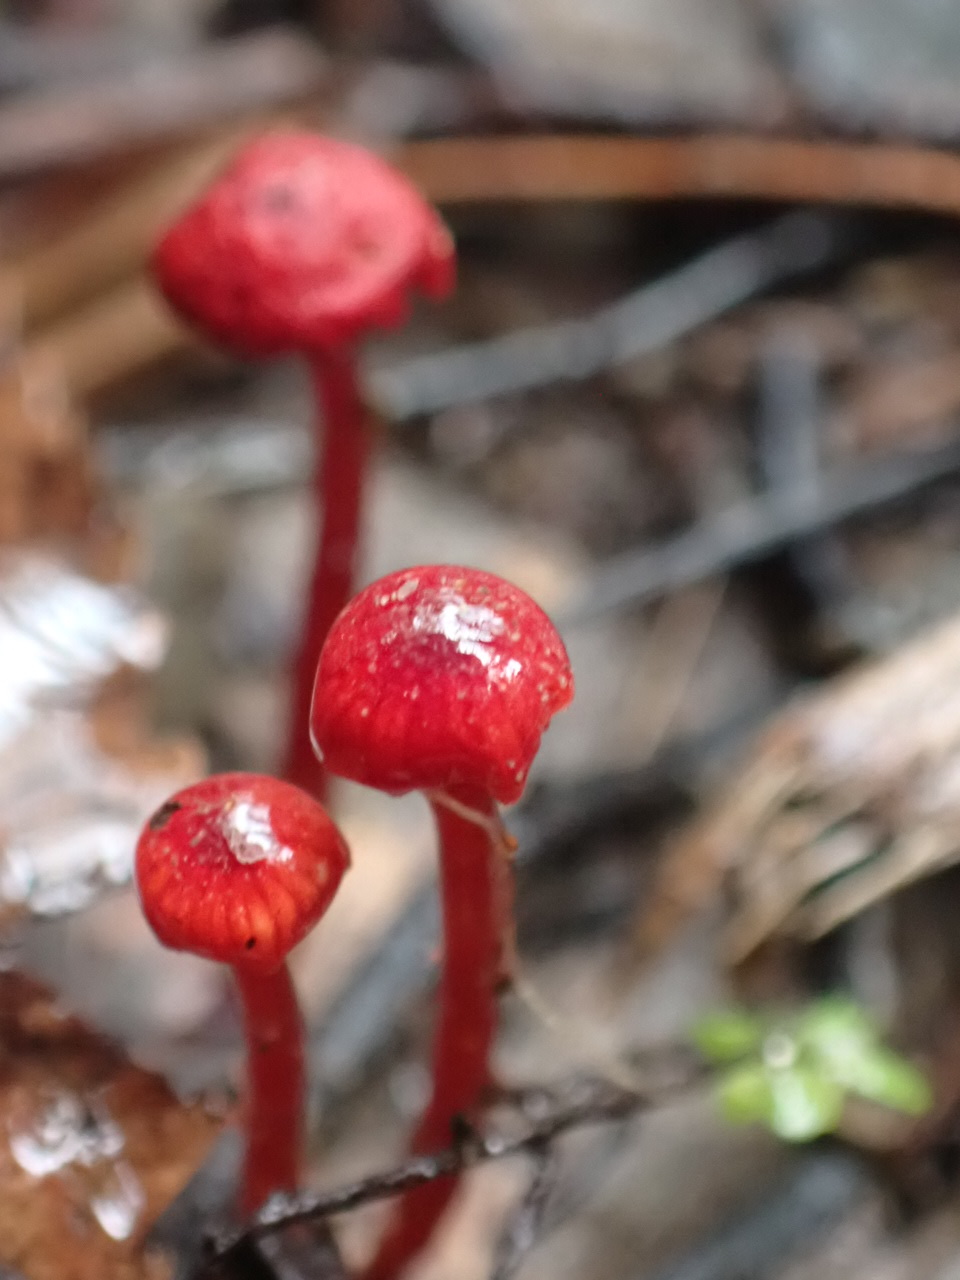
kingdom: Fungi
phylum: Basidiomycota
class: Agaricomycetes
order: Agaricales
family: Mycenaceae
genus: Cruentomycena
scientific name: Cruentomycena viscidocruenta
